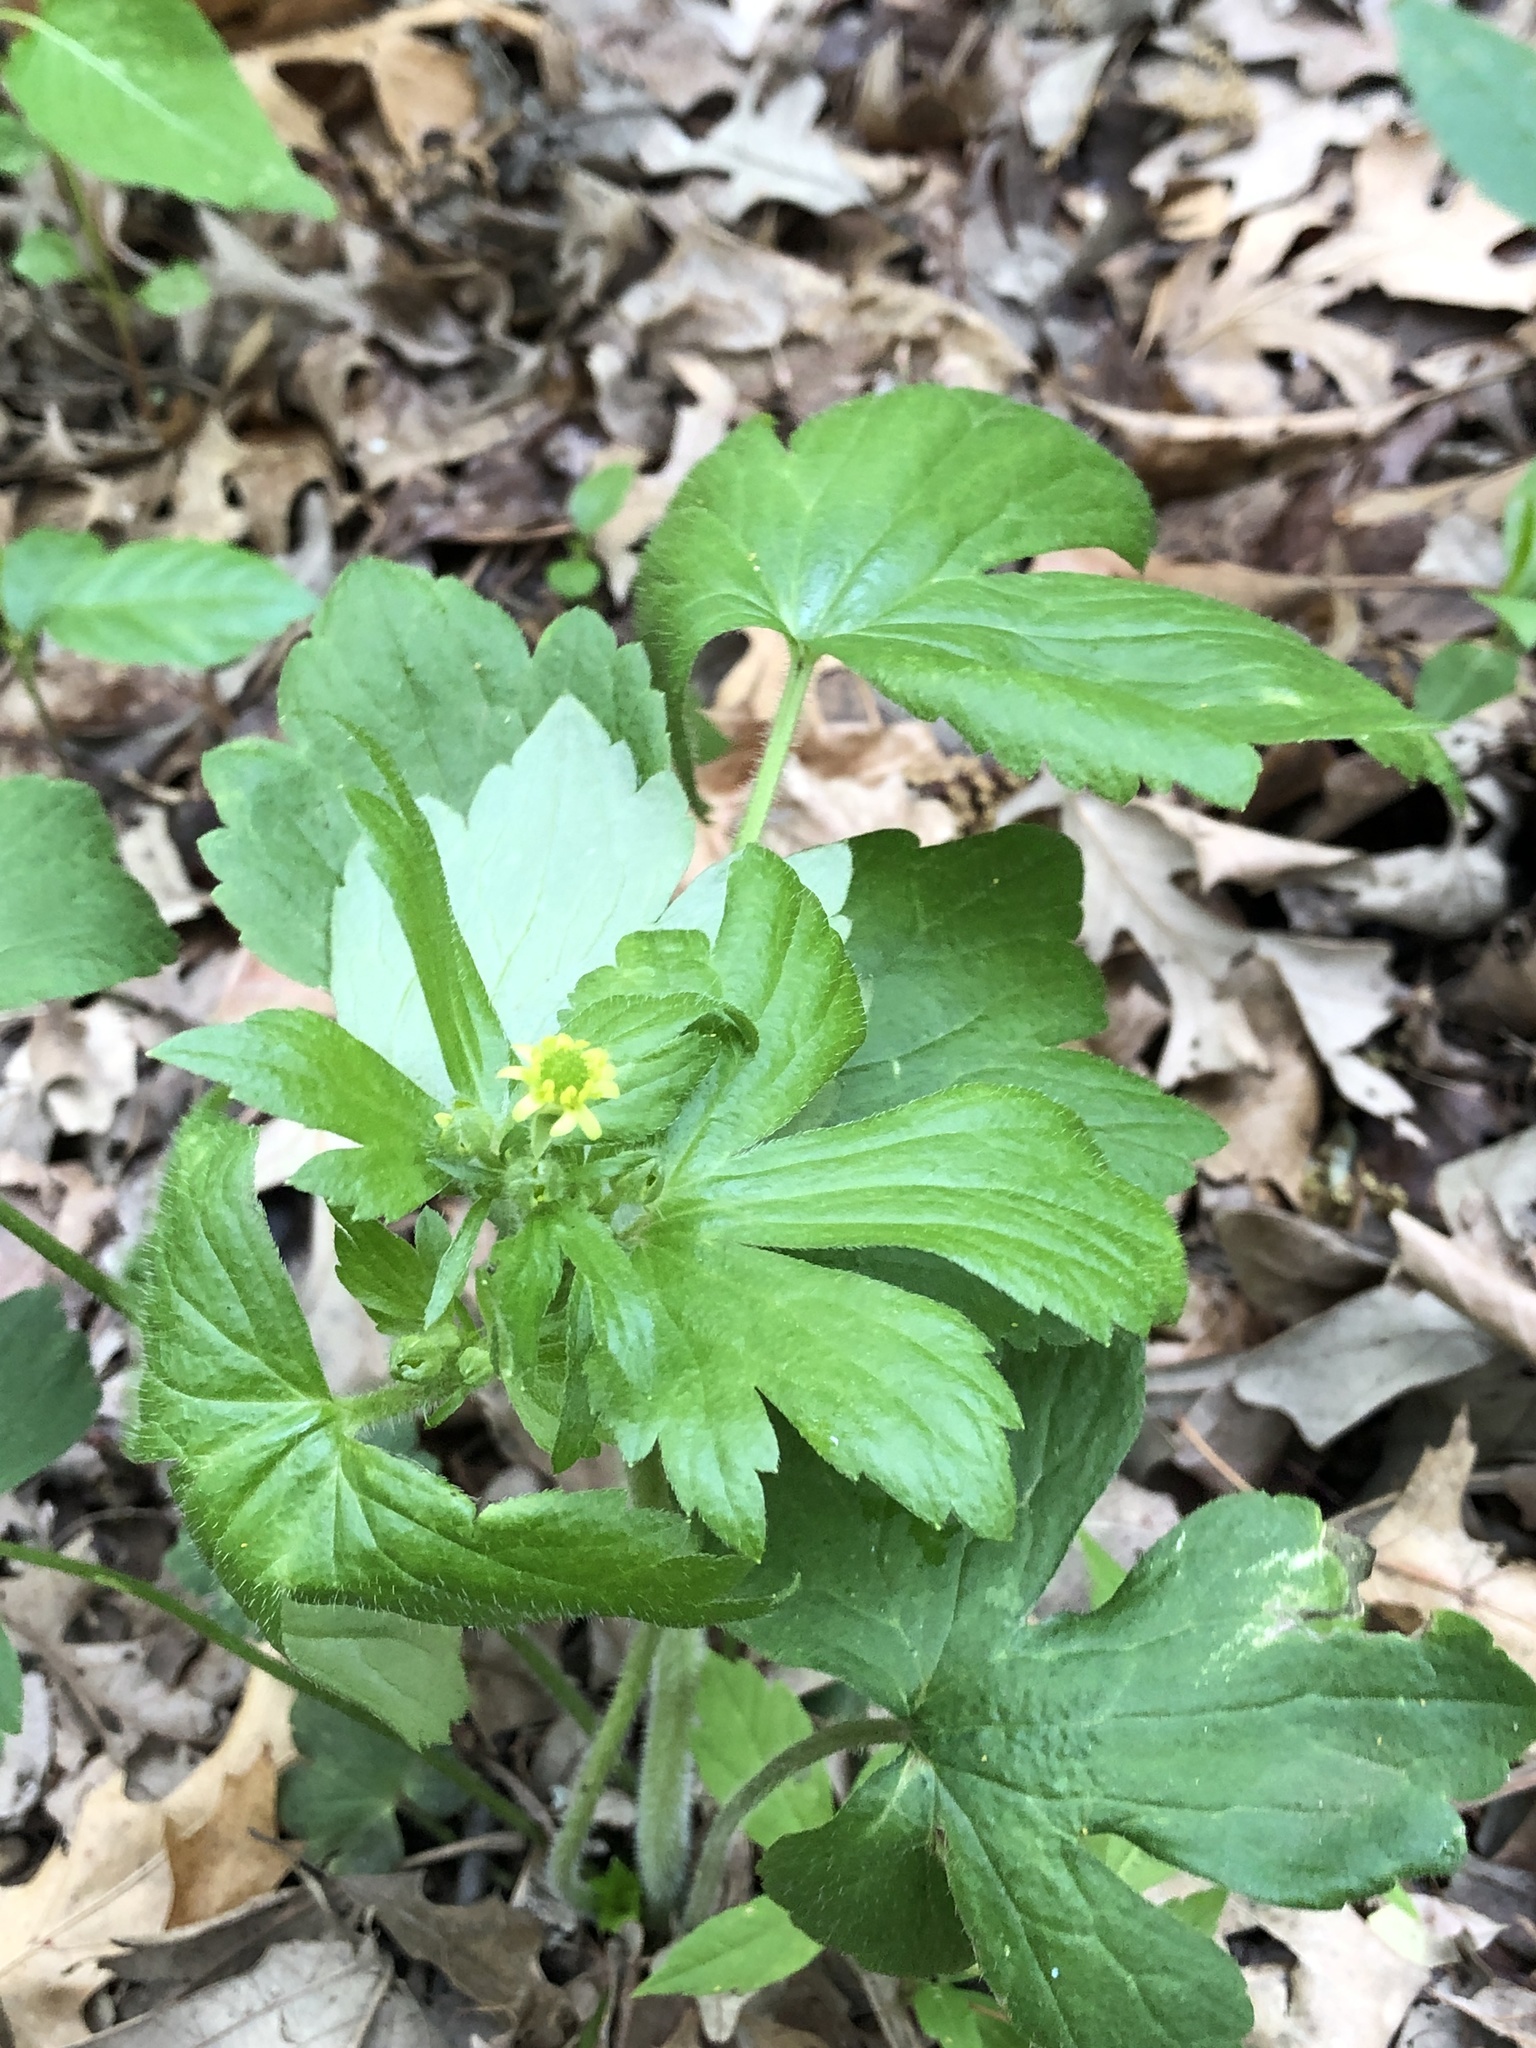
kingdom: Plantae
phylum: Tracheophyta
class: Magnoliopsida
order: Ranunculales
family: Ranunculaceae
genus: Ranunculus
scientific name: Ranunculus recurvatus
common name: Blisterwort
